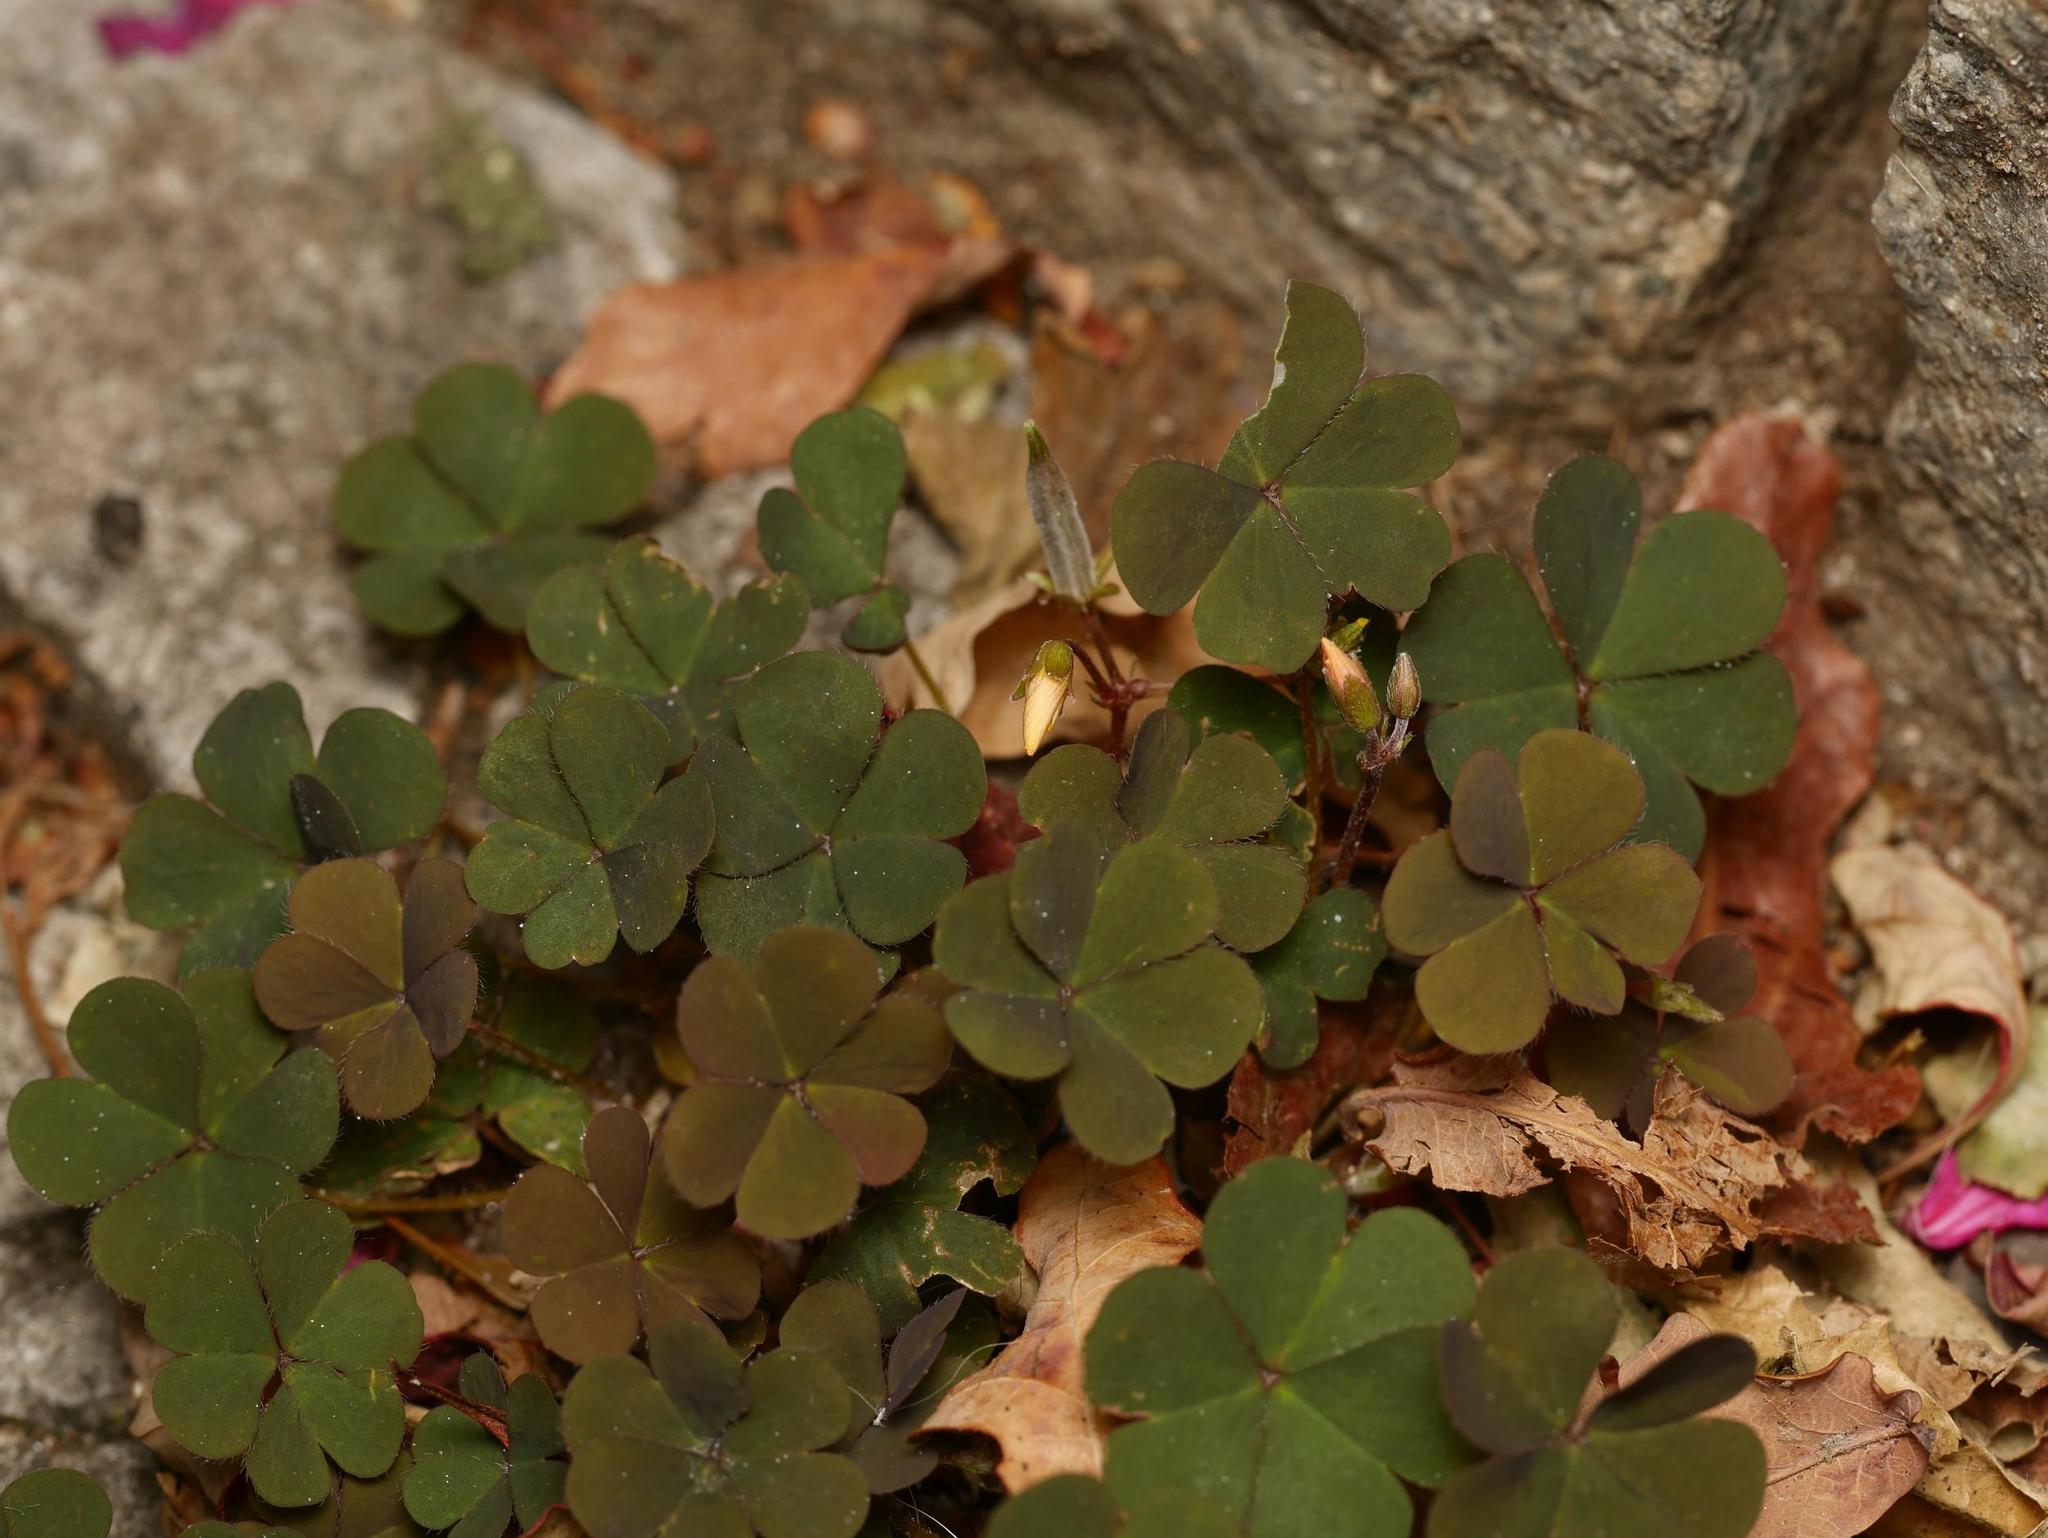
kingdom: Plantae
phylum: Tracheophyta
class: Magnoliopsida
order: Oxalidales
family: Oxalidaceae
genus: Oxalis
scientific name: Oxalis corniculata
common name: Procumbent yellow-sorrel
